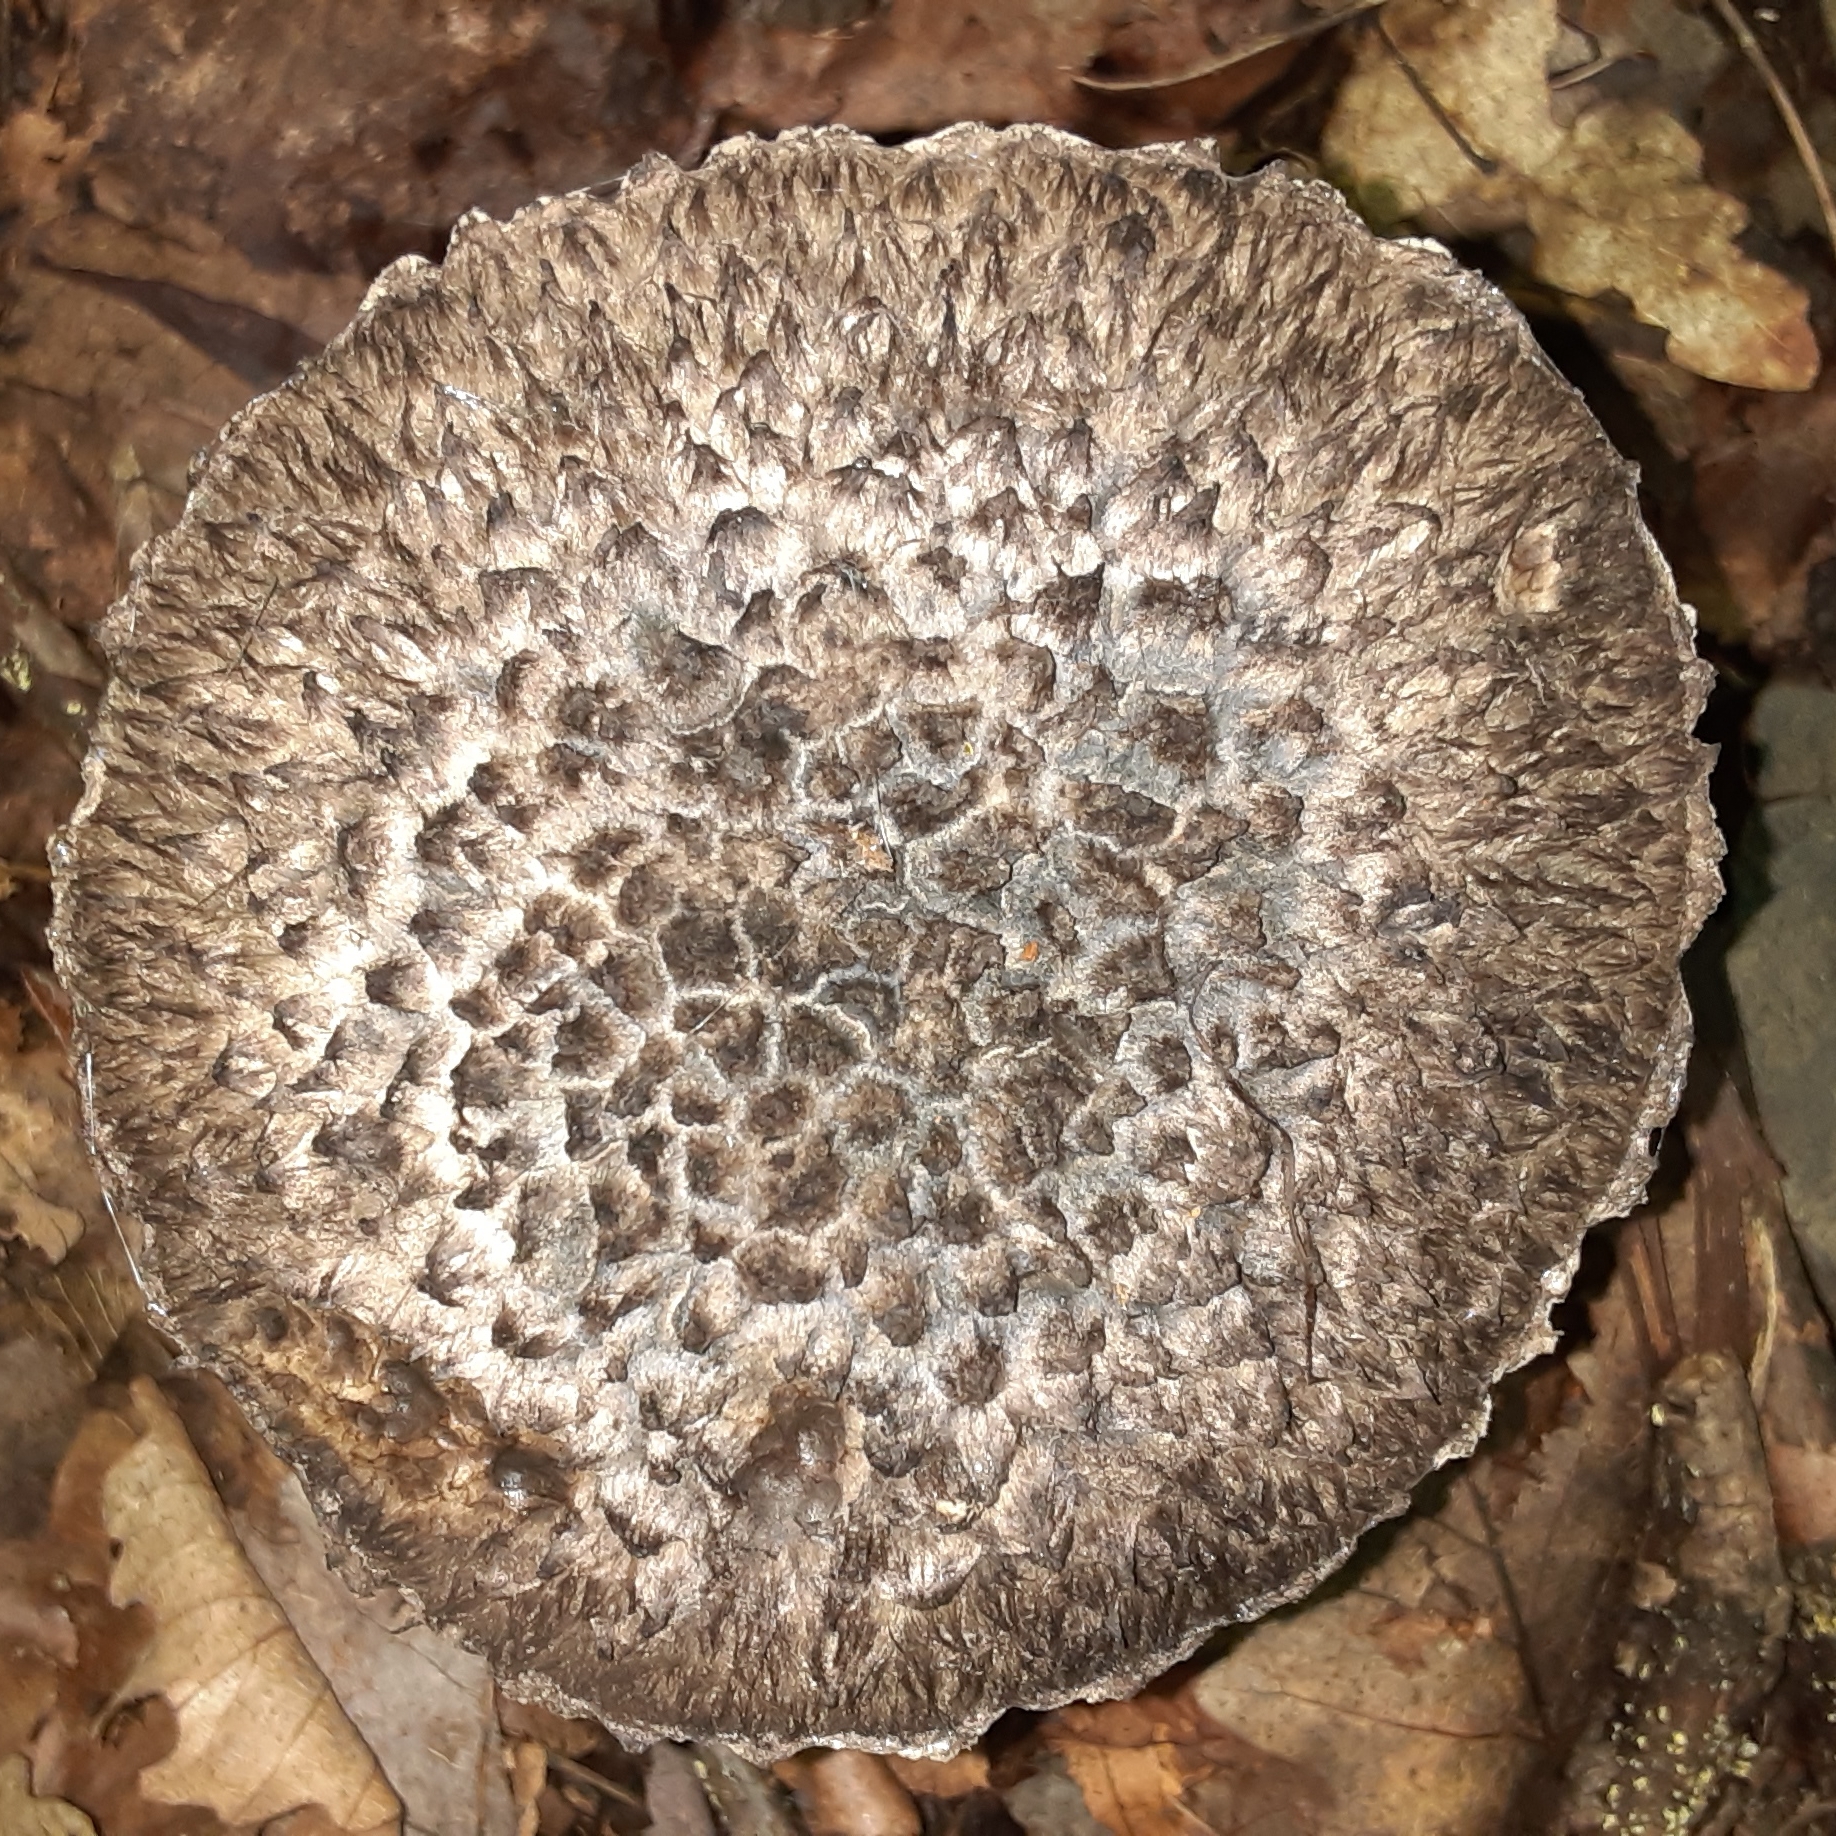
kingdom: Fungi
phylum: Basidiomycota
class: Agaricomycetes
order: Boletales
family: Boletaceae
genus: Strobilomyces
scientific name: Strobilomyces strobilaceus
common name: Old man of the woods
